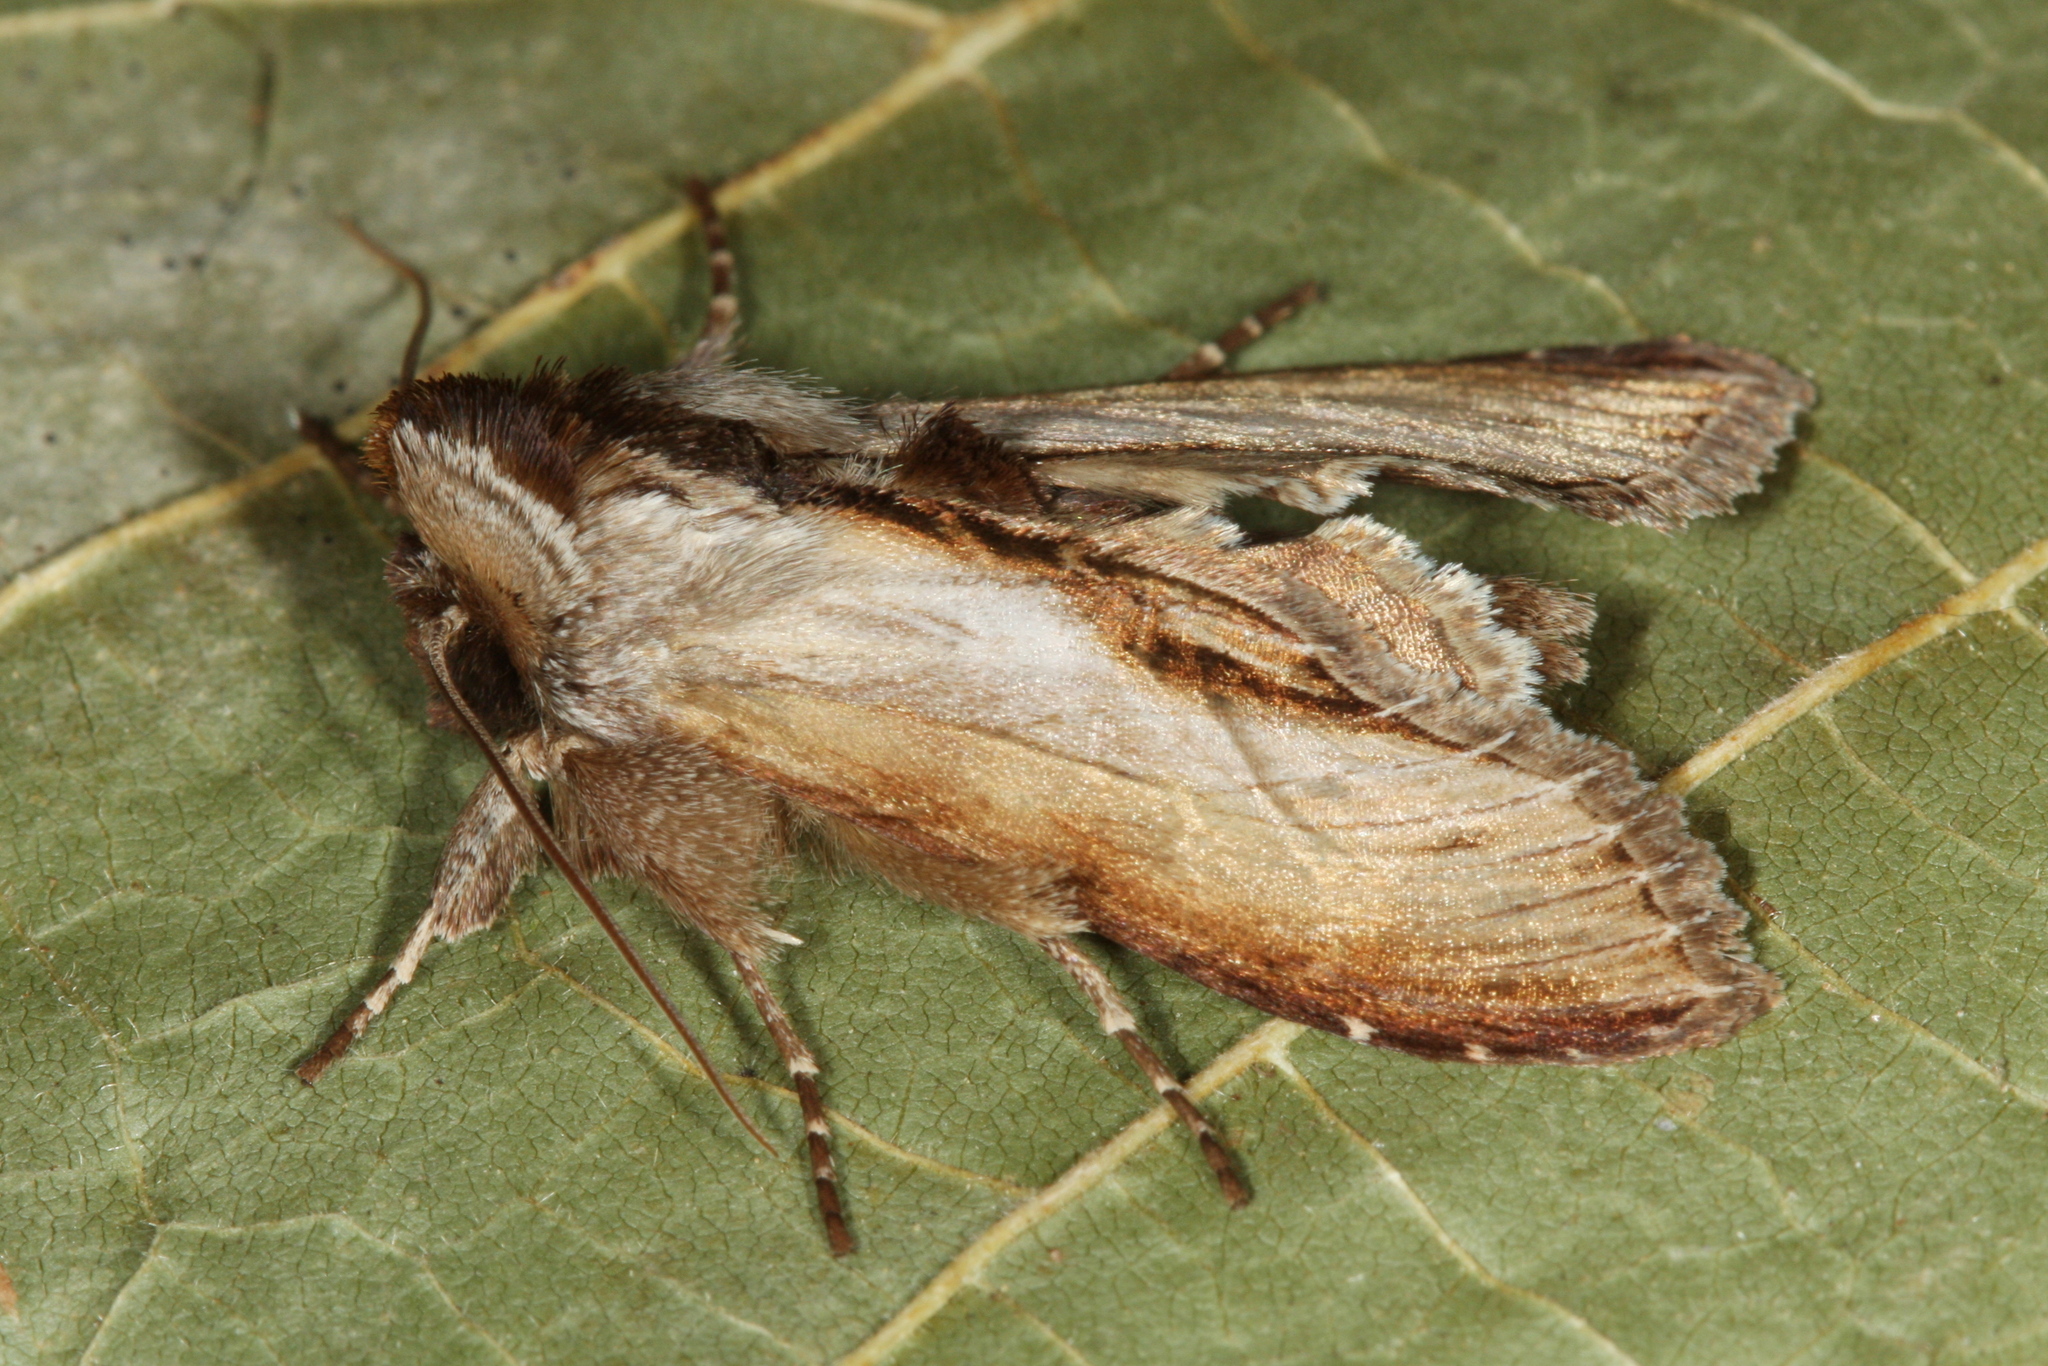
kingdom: Animalia
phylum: Arthropoda
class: Insecta
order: Lepidoptera
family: Noctuidae
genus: Shargacucullia
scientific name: Shargacucullia prenanthis
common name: False water betony
